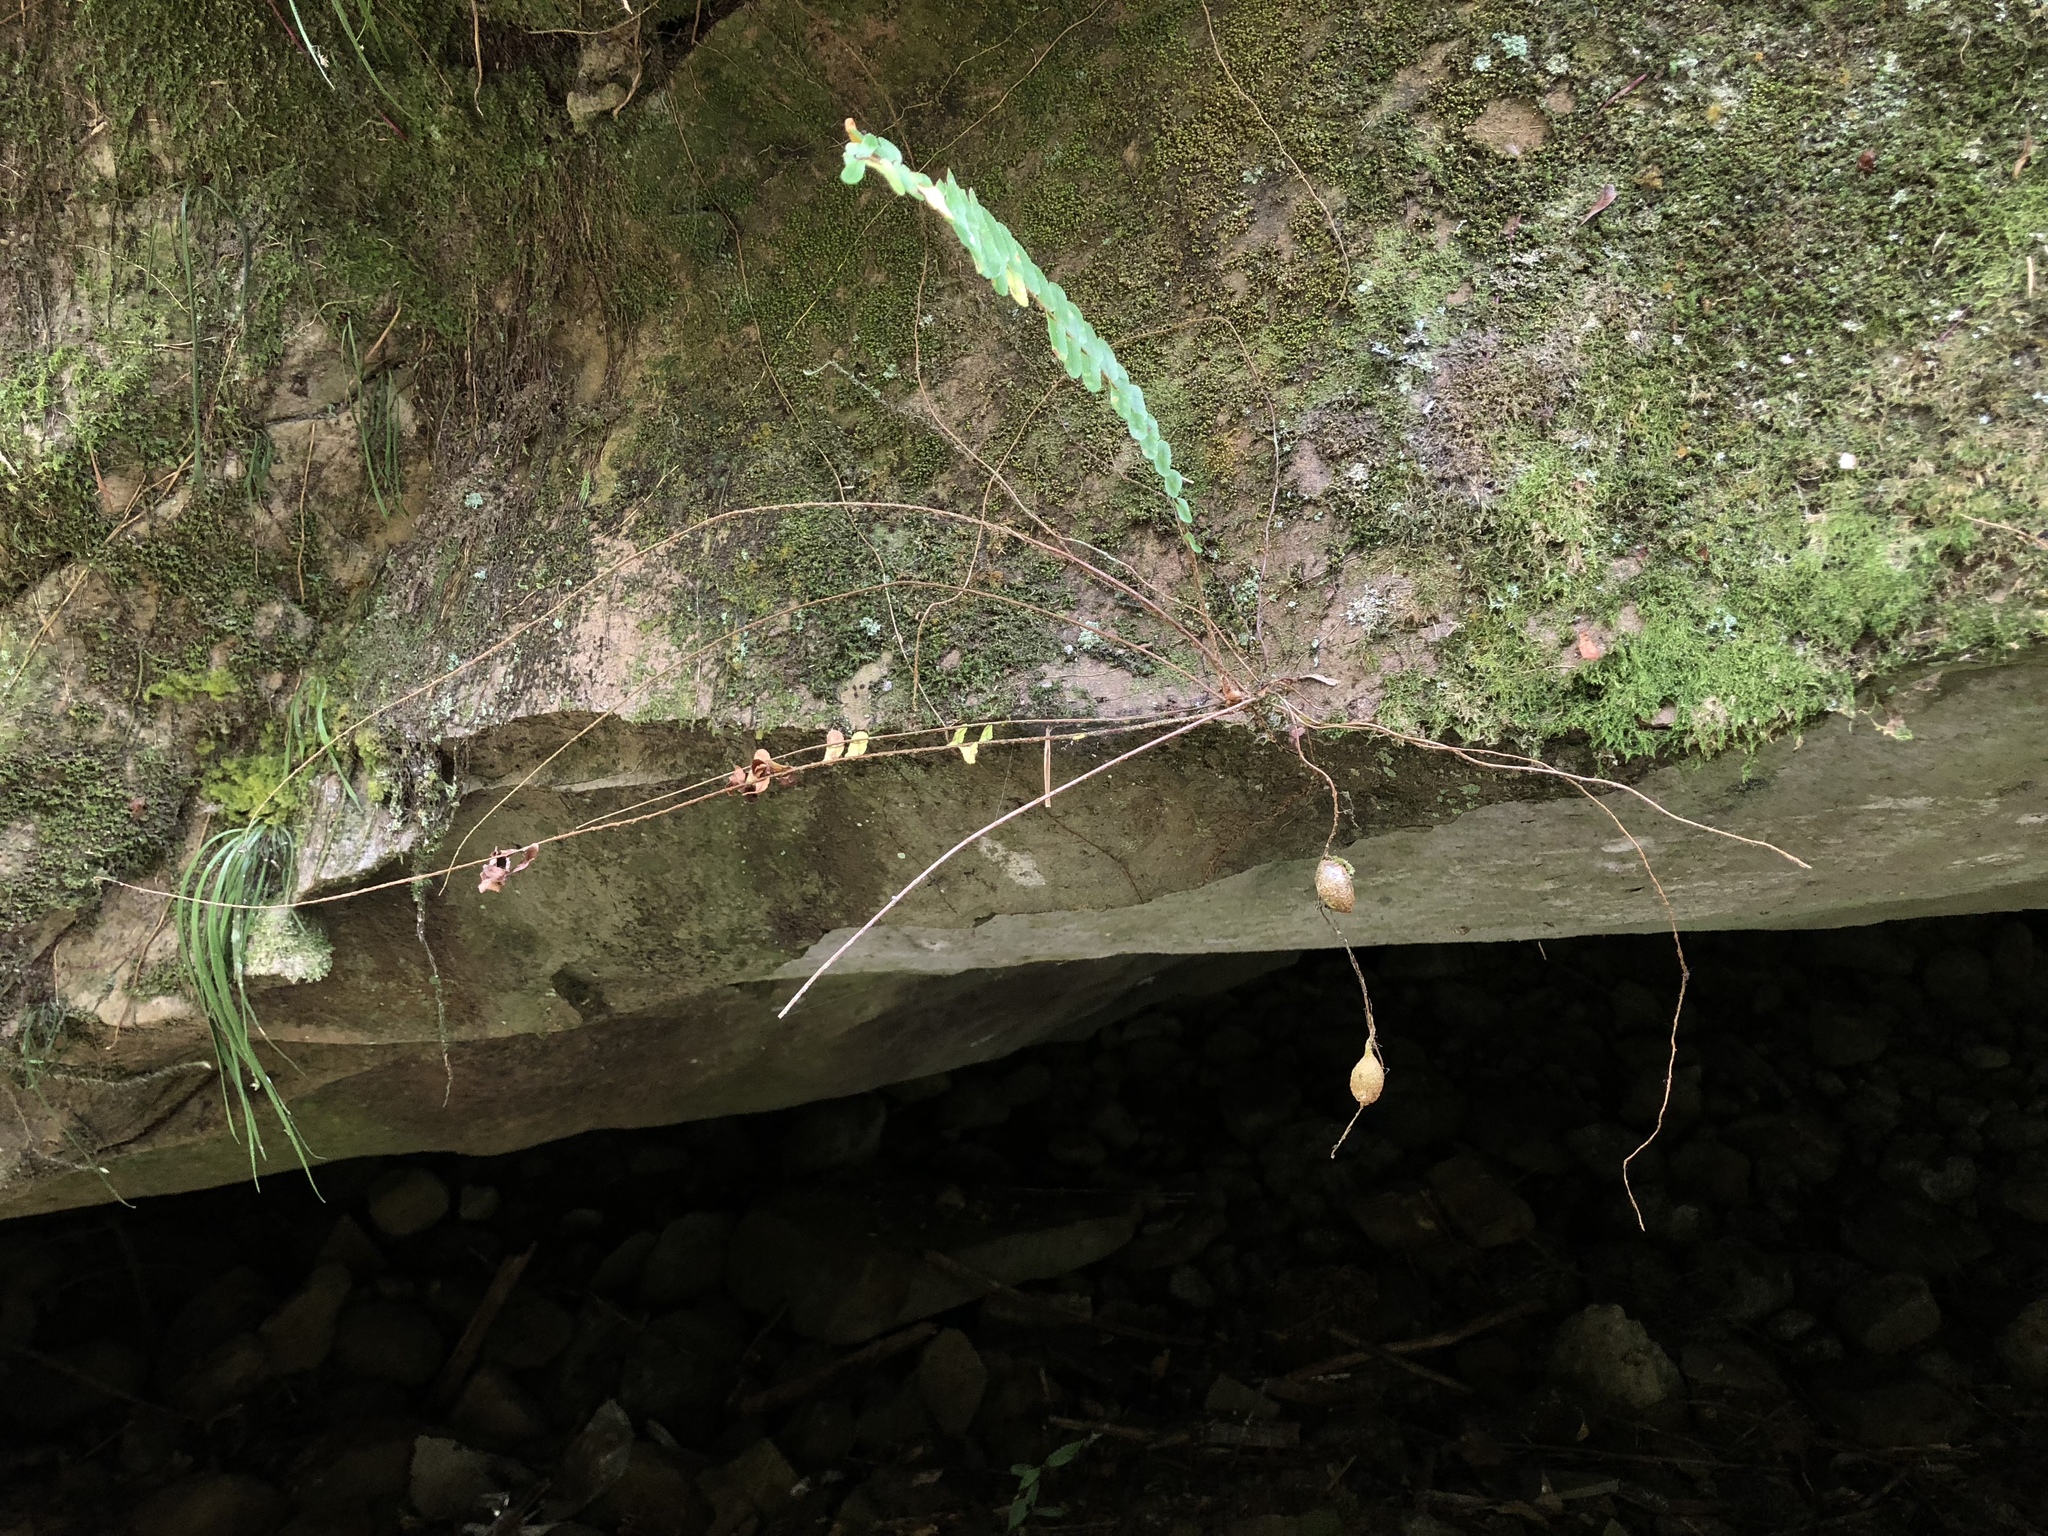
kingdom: Plantae
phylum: Tracheophyta
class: Polypodiopsida
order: Polypodiales
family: Nephrolepidaceae
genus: Nephrolepis
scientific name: Nephrolepis cordifolia
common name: Narrow swordfern
